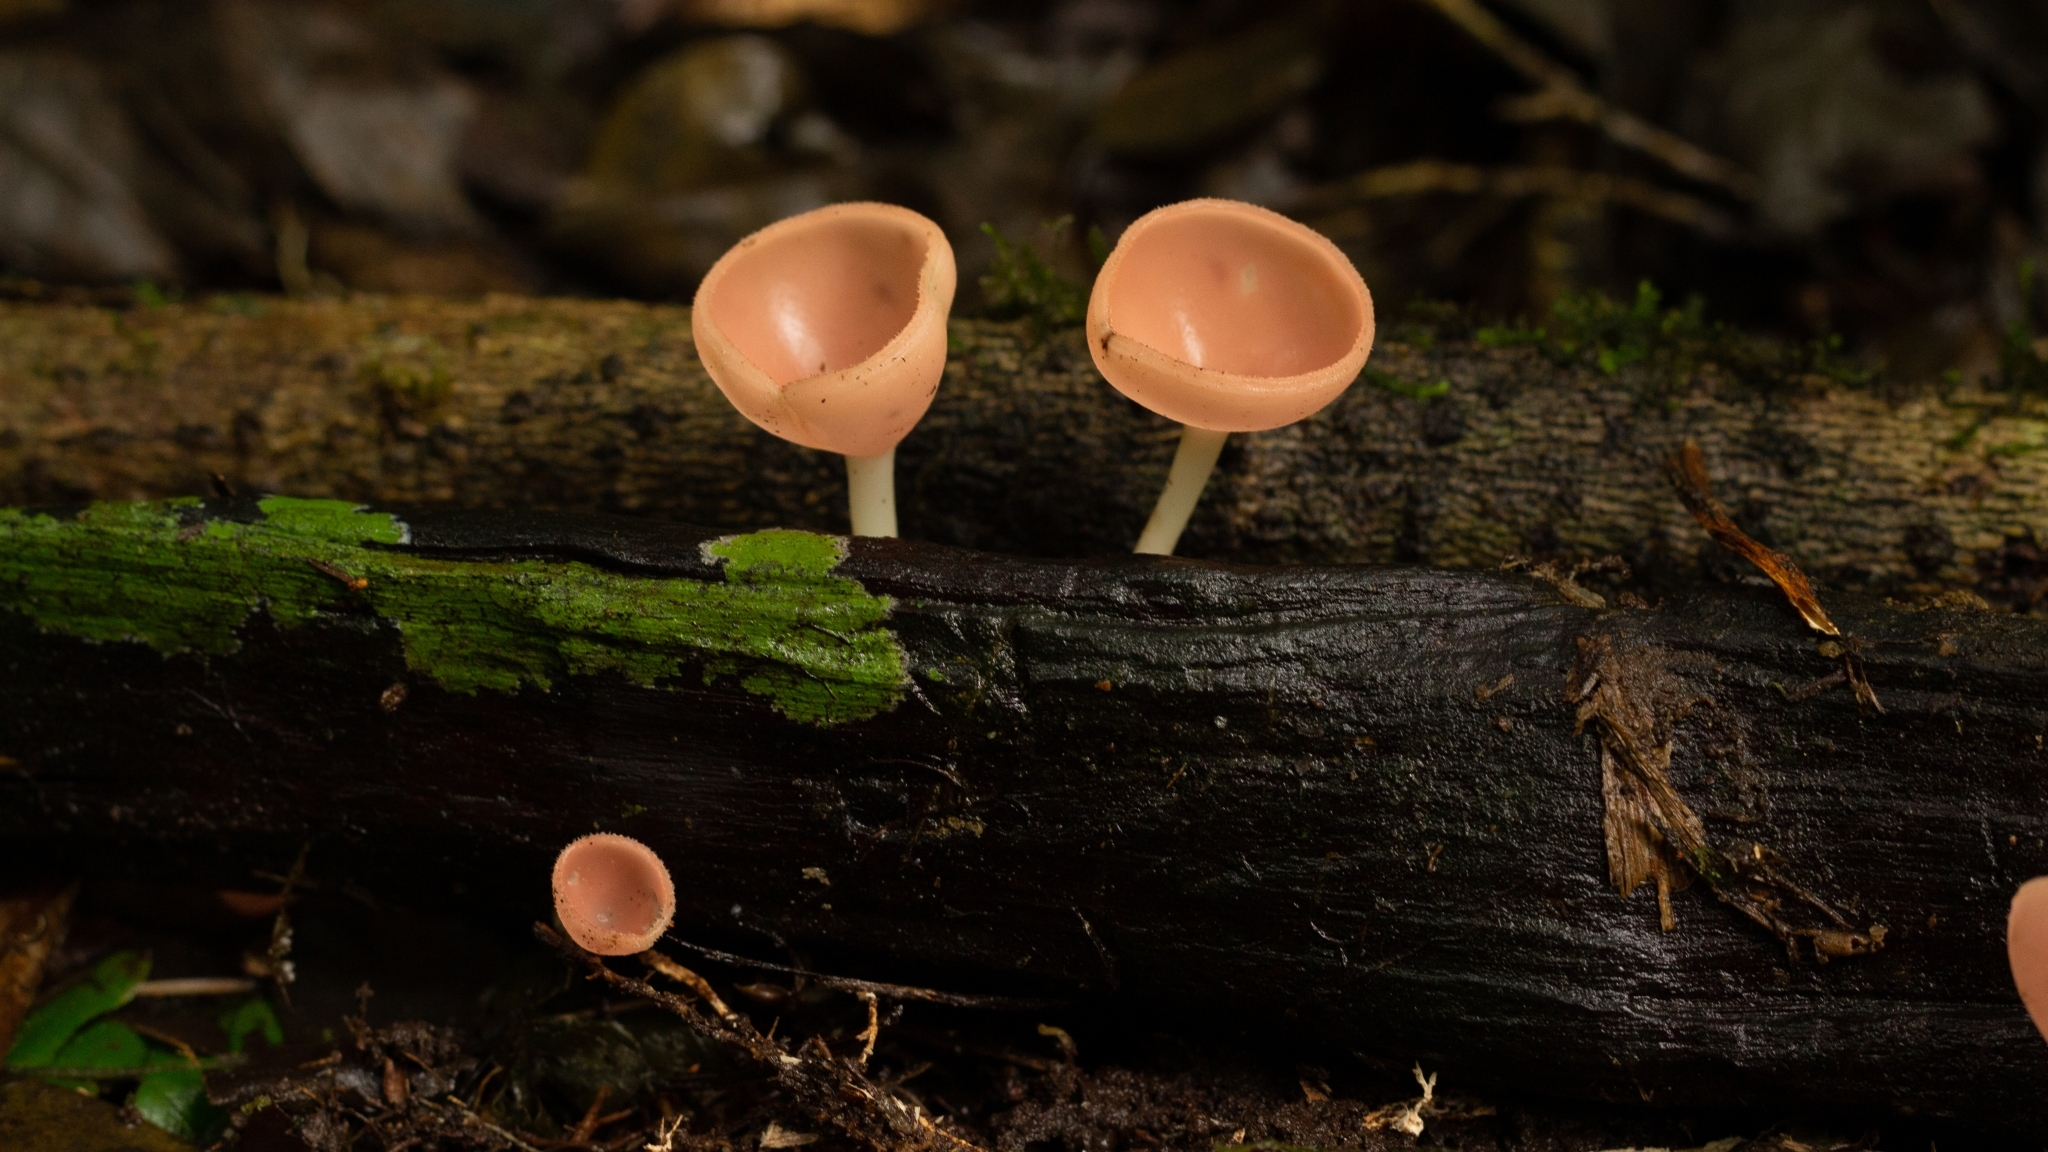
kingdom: Fungi
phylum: Ascomycota
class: Pezizomycetes
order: Pezizales
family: Sarcoscyphaceae
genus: Cookeina
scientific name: Cookeina speciosa
